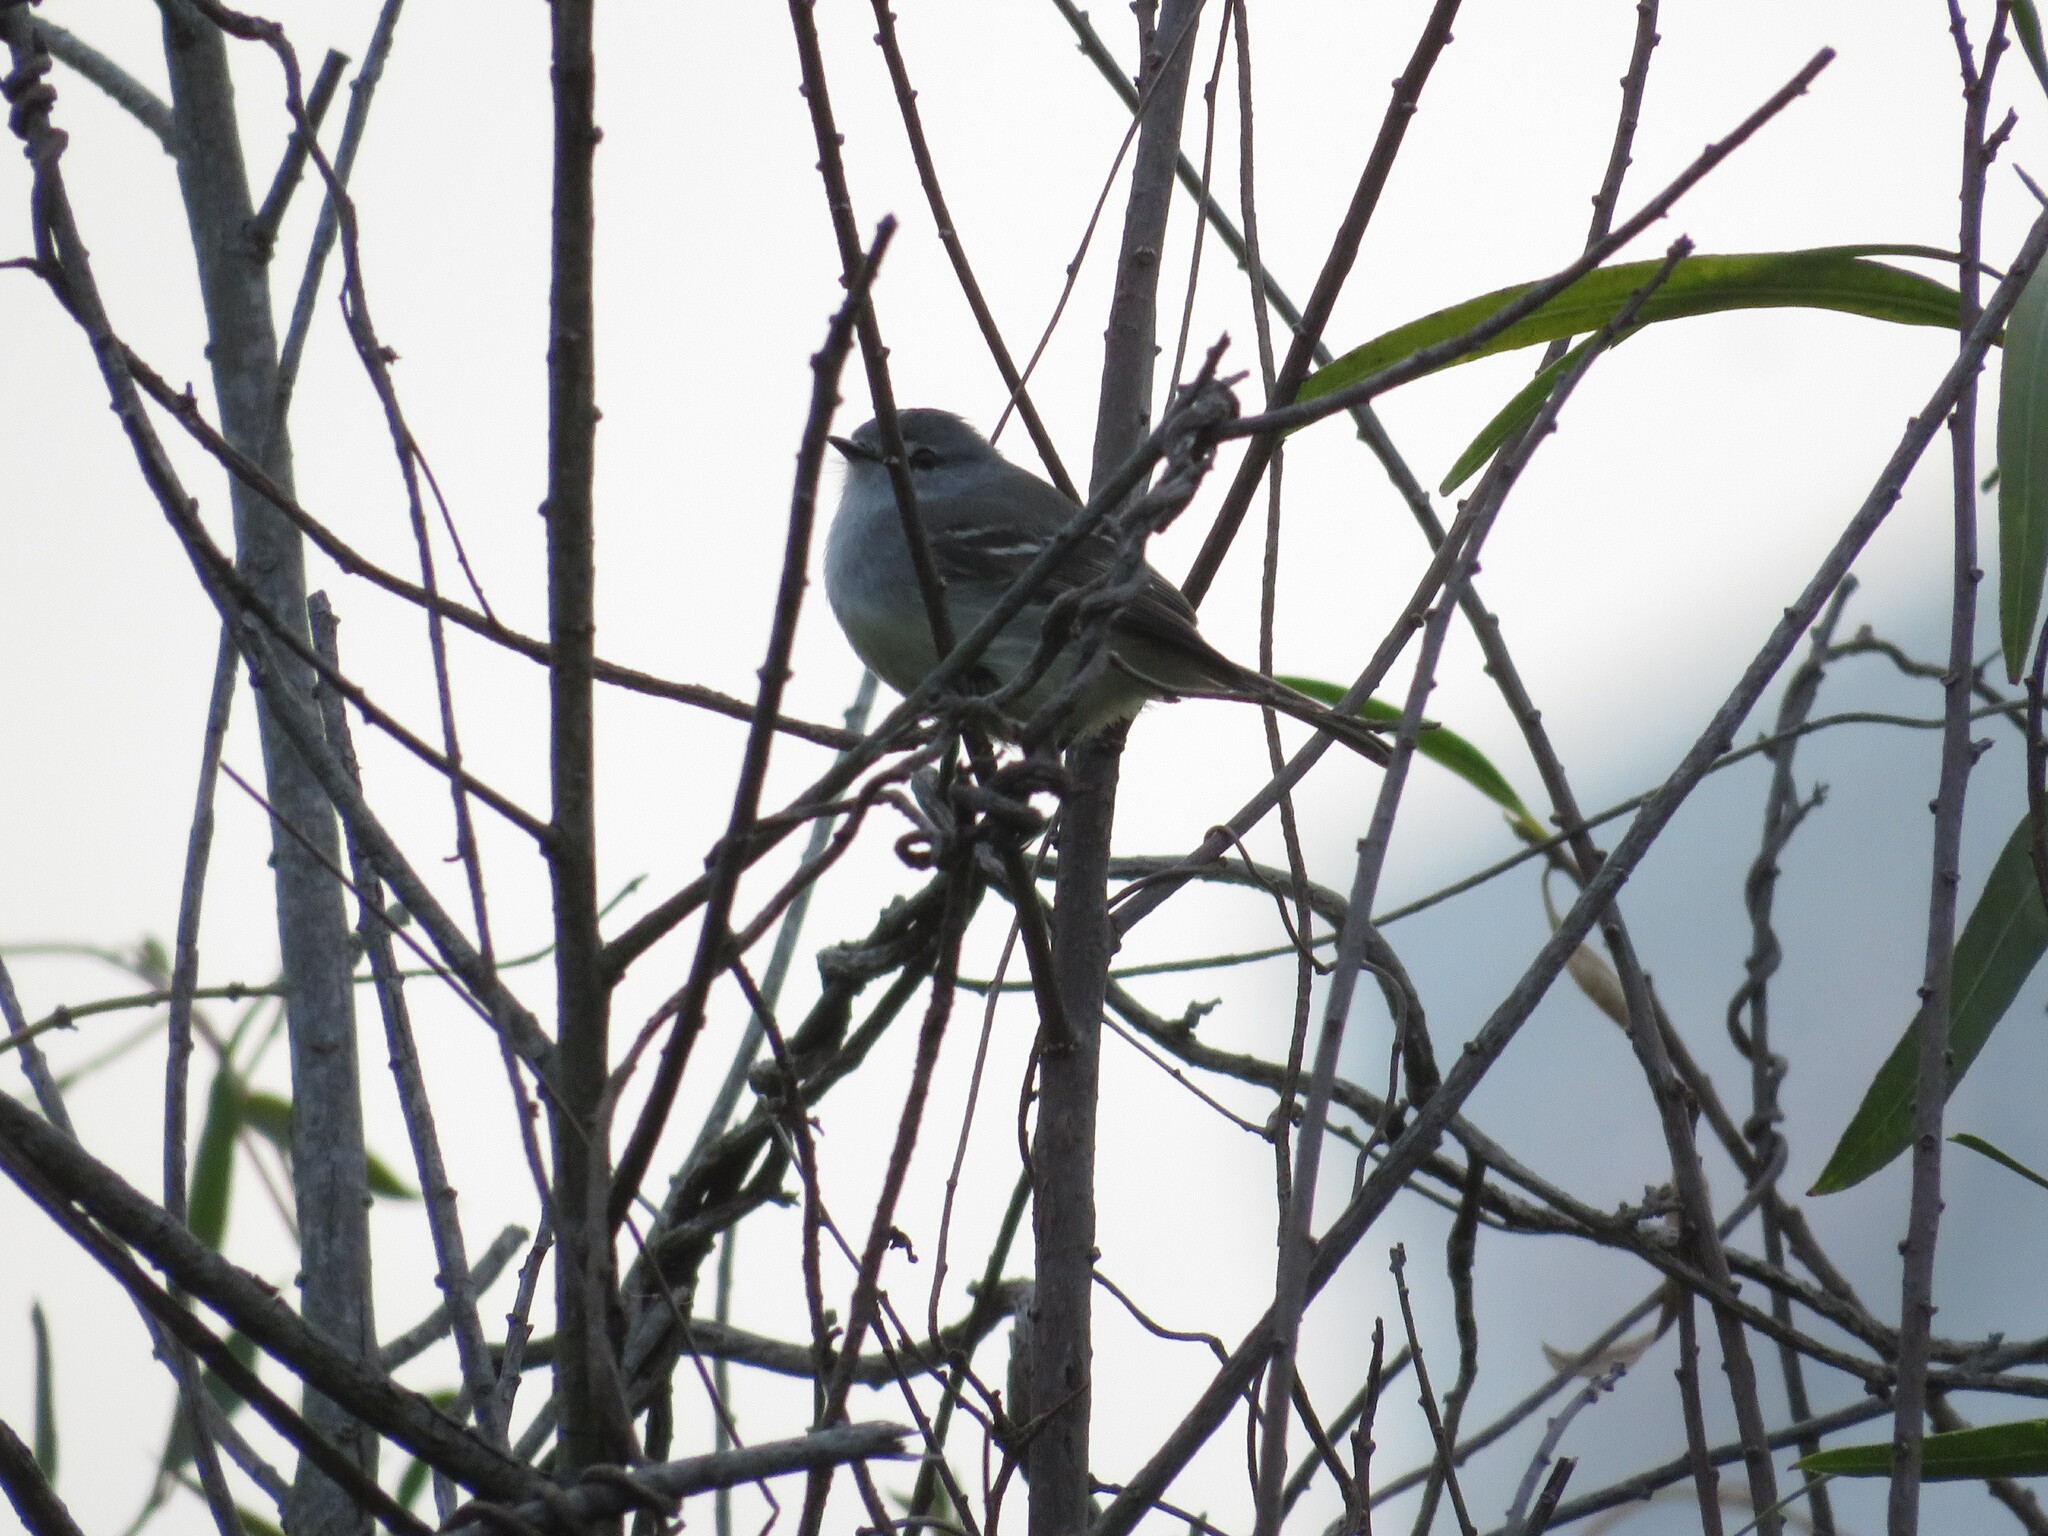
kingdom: Animalia
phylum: Chordata
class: Aves
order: Passeriformes
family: Tyrannidae
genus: Serpophaga
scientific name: Serpophaga griseicapilla
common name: Straneck's tyrannulet
